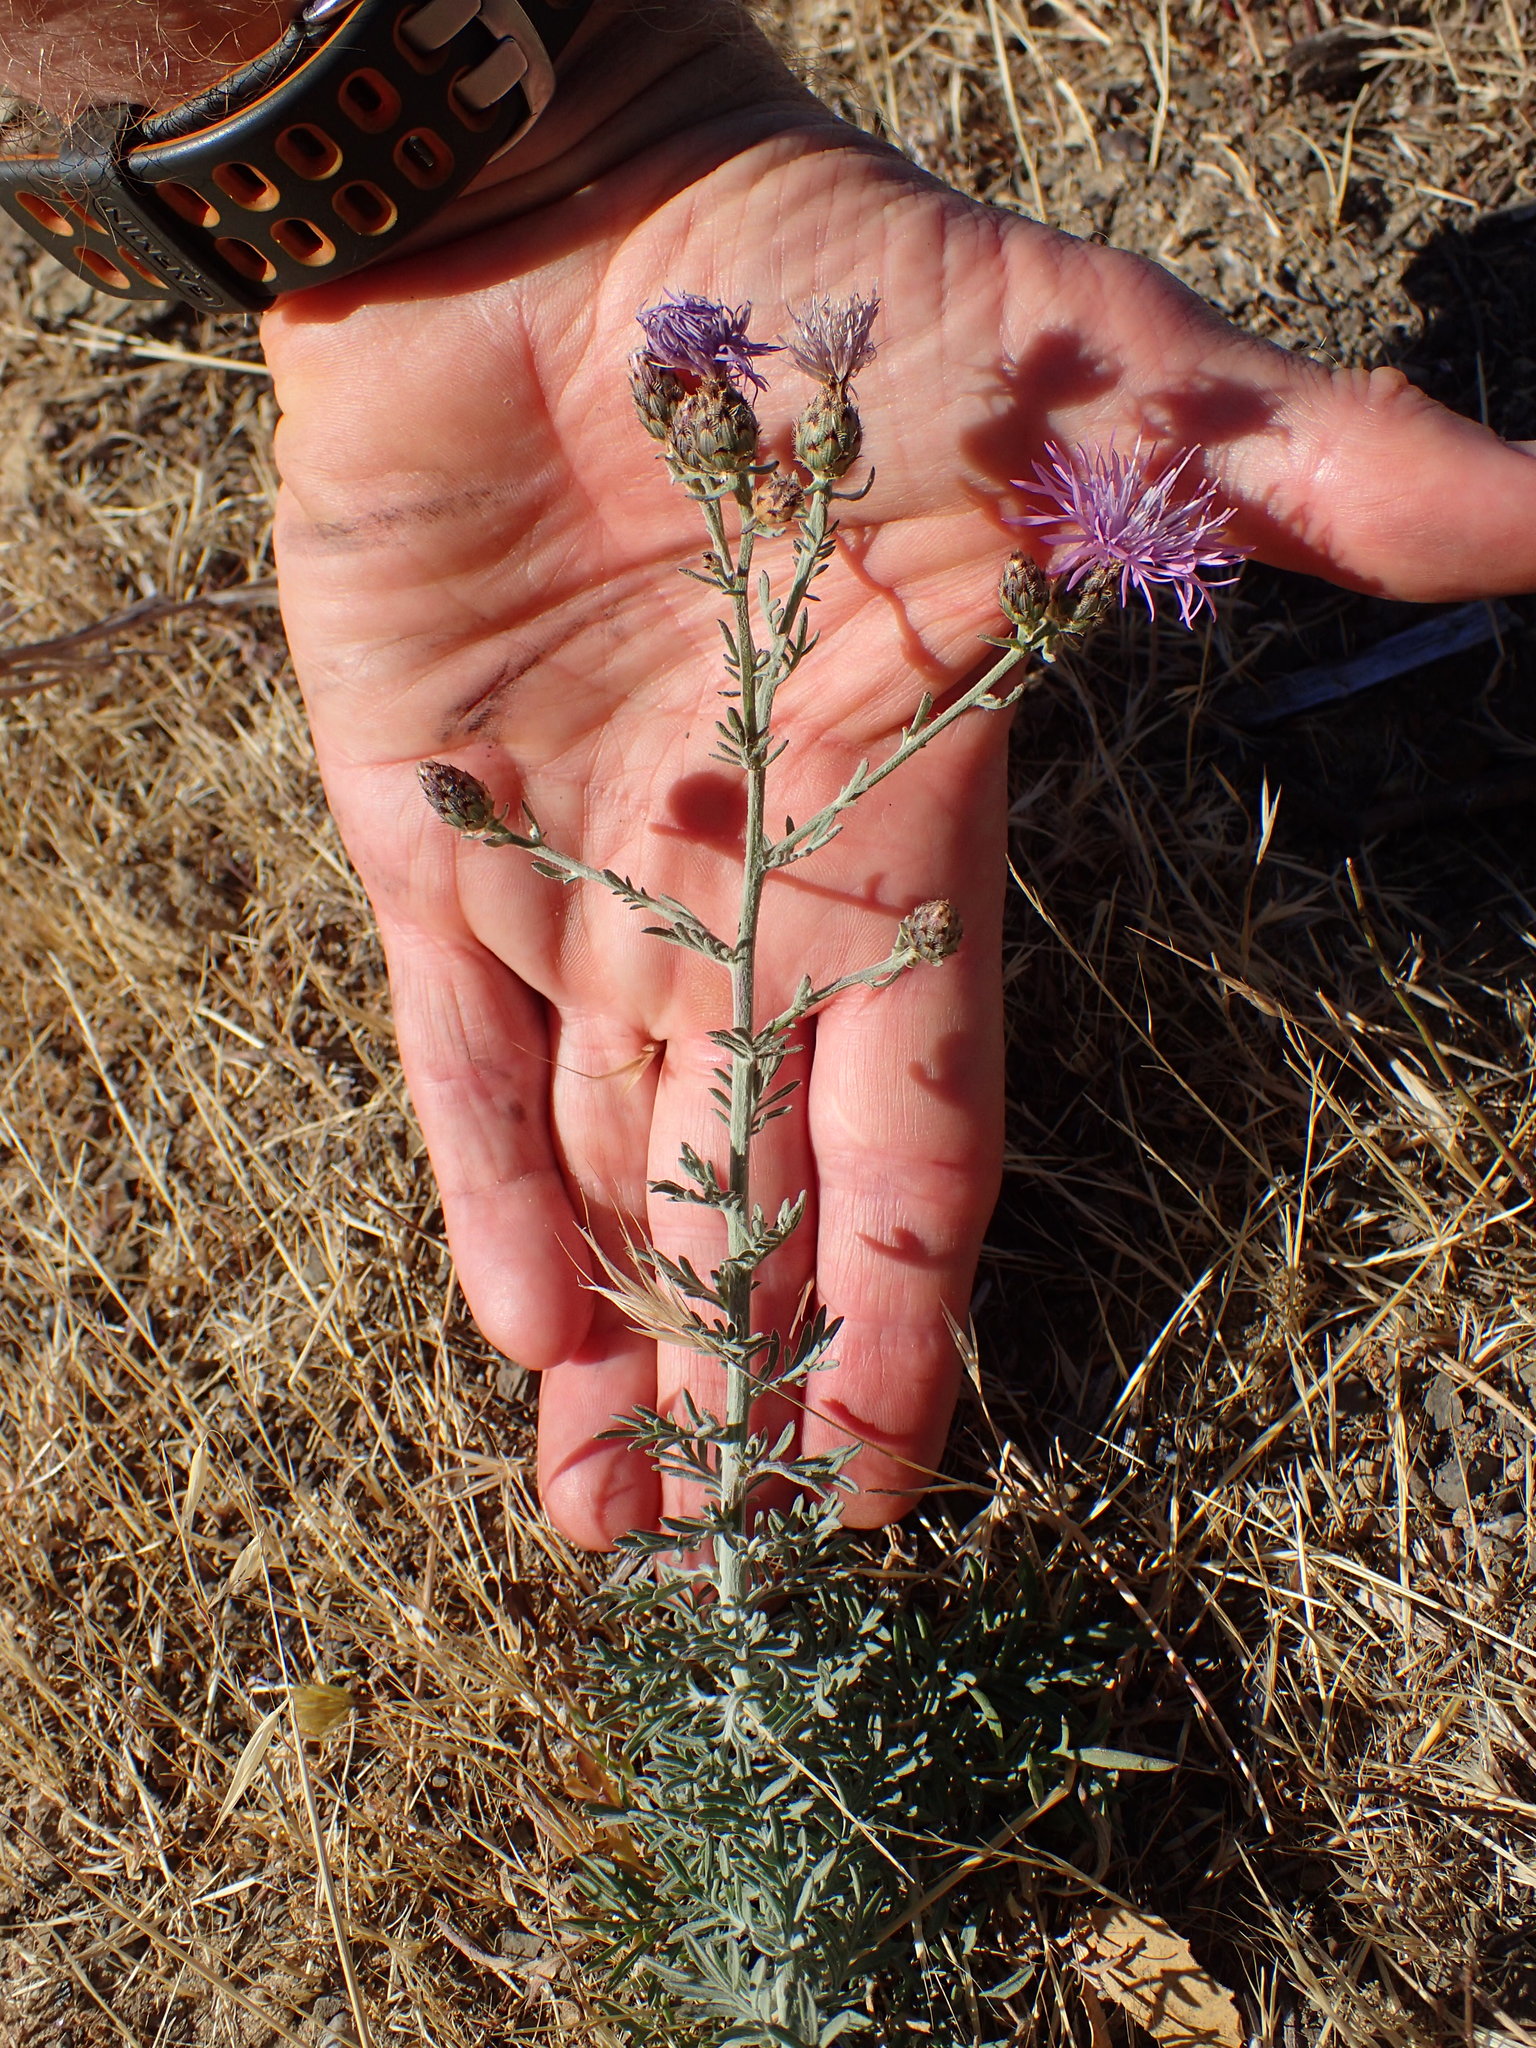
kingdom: Plantae
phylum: Tracheophyta
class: Magnoliopsida
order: Asterales
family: Asteraceae
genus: Centaurea
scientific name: Centaurea stoebe
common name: Spotted knapweed
